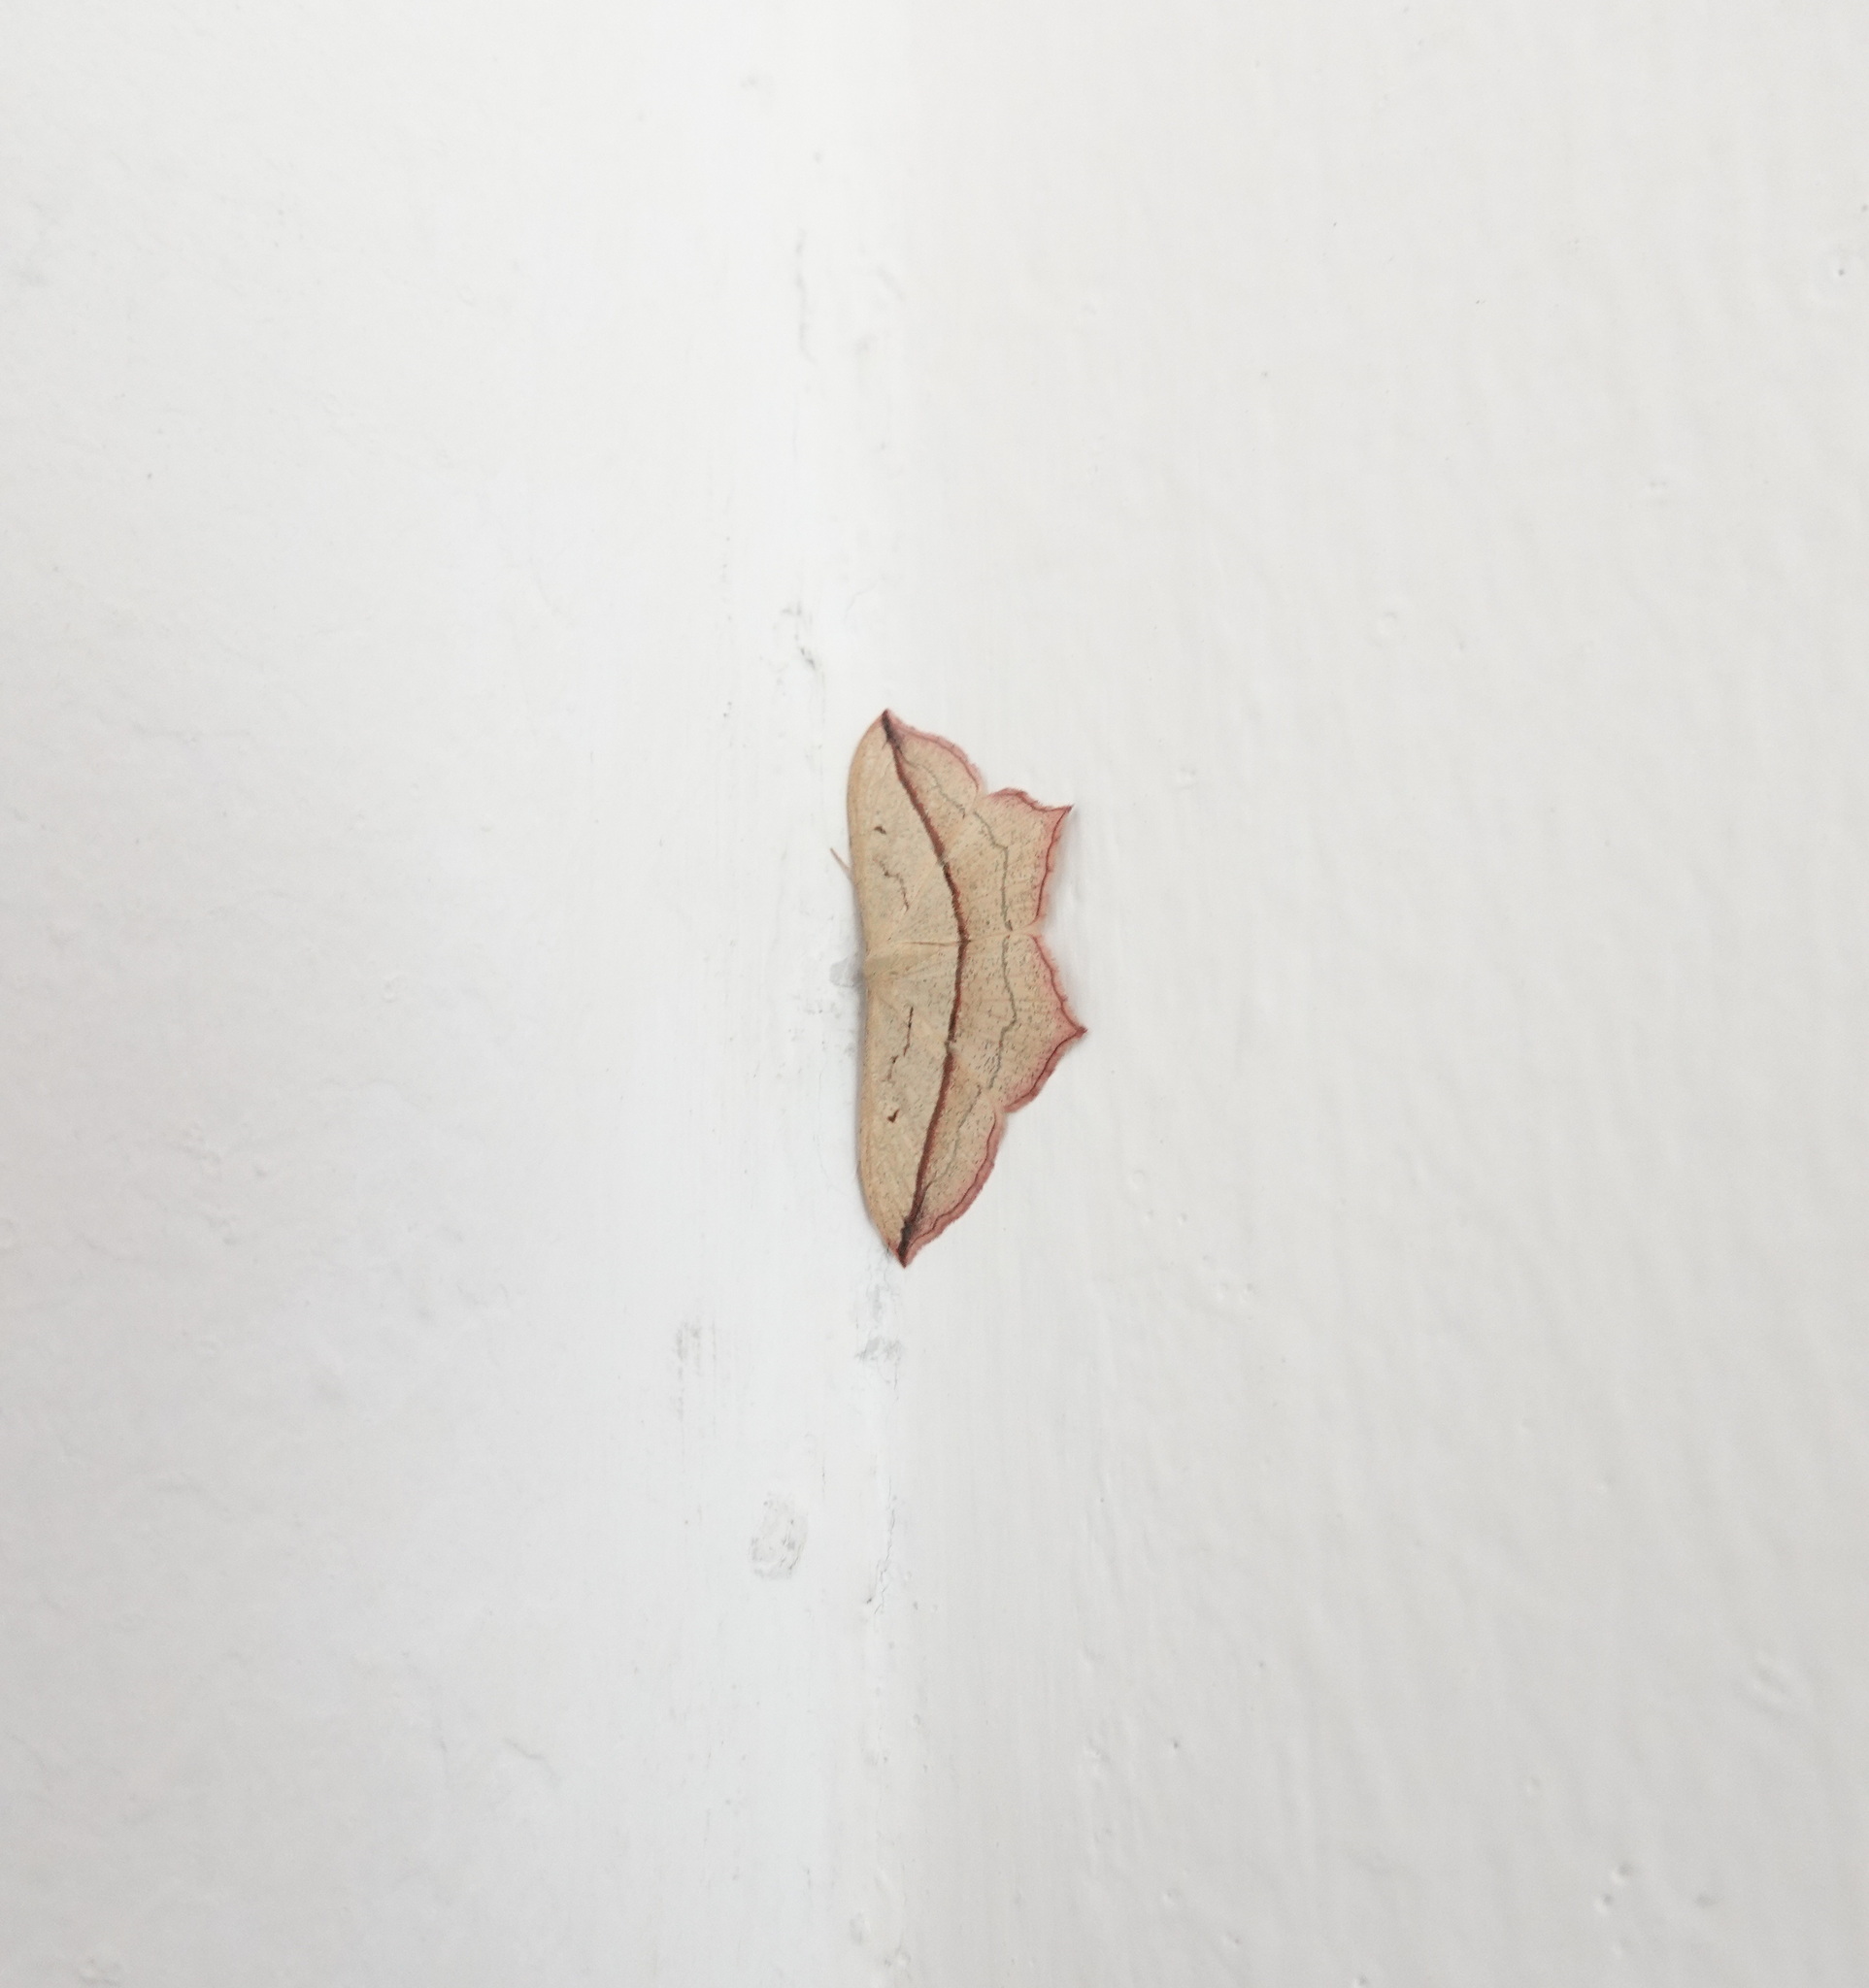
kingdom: Animalia
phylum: Arthropoda
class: Insecta
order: Lepidoptera
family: Geometridae
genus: Timandra
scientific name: Timandra comae
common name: Blood-vein
